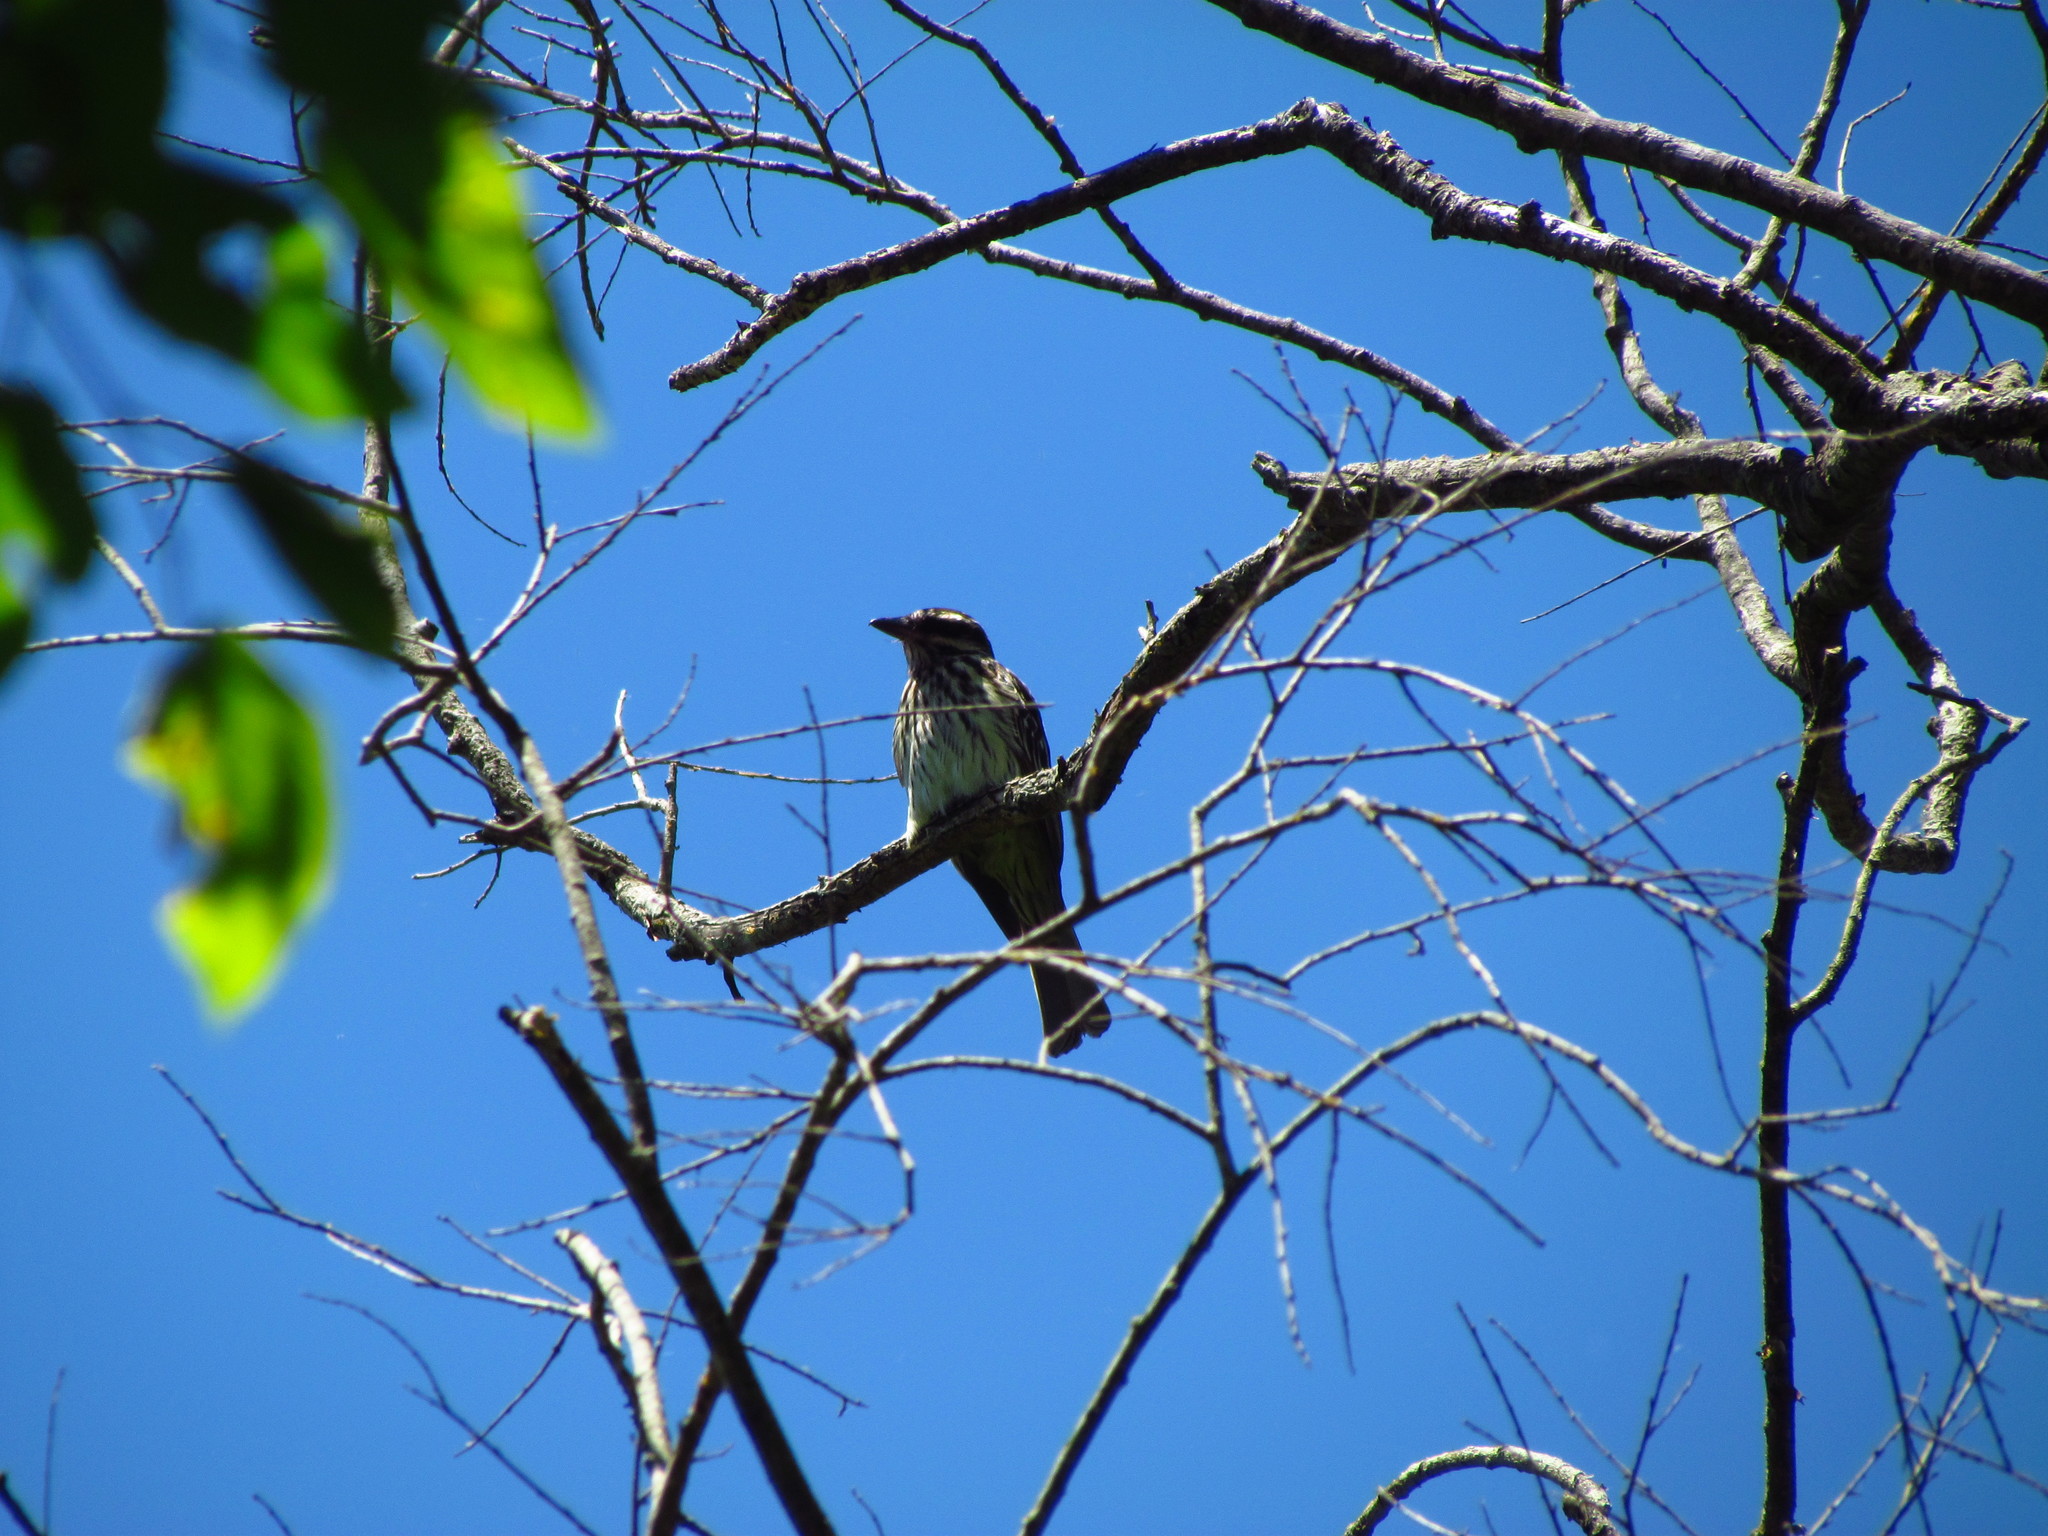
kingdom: Animalia
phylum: Chordata
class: Aves
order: Passeriformes
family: Tyrannidae
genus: Myiodynastes
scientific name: Myiodynastes maculatus
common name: Streaked flycatcher
